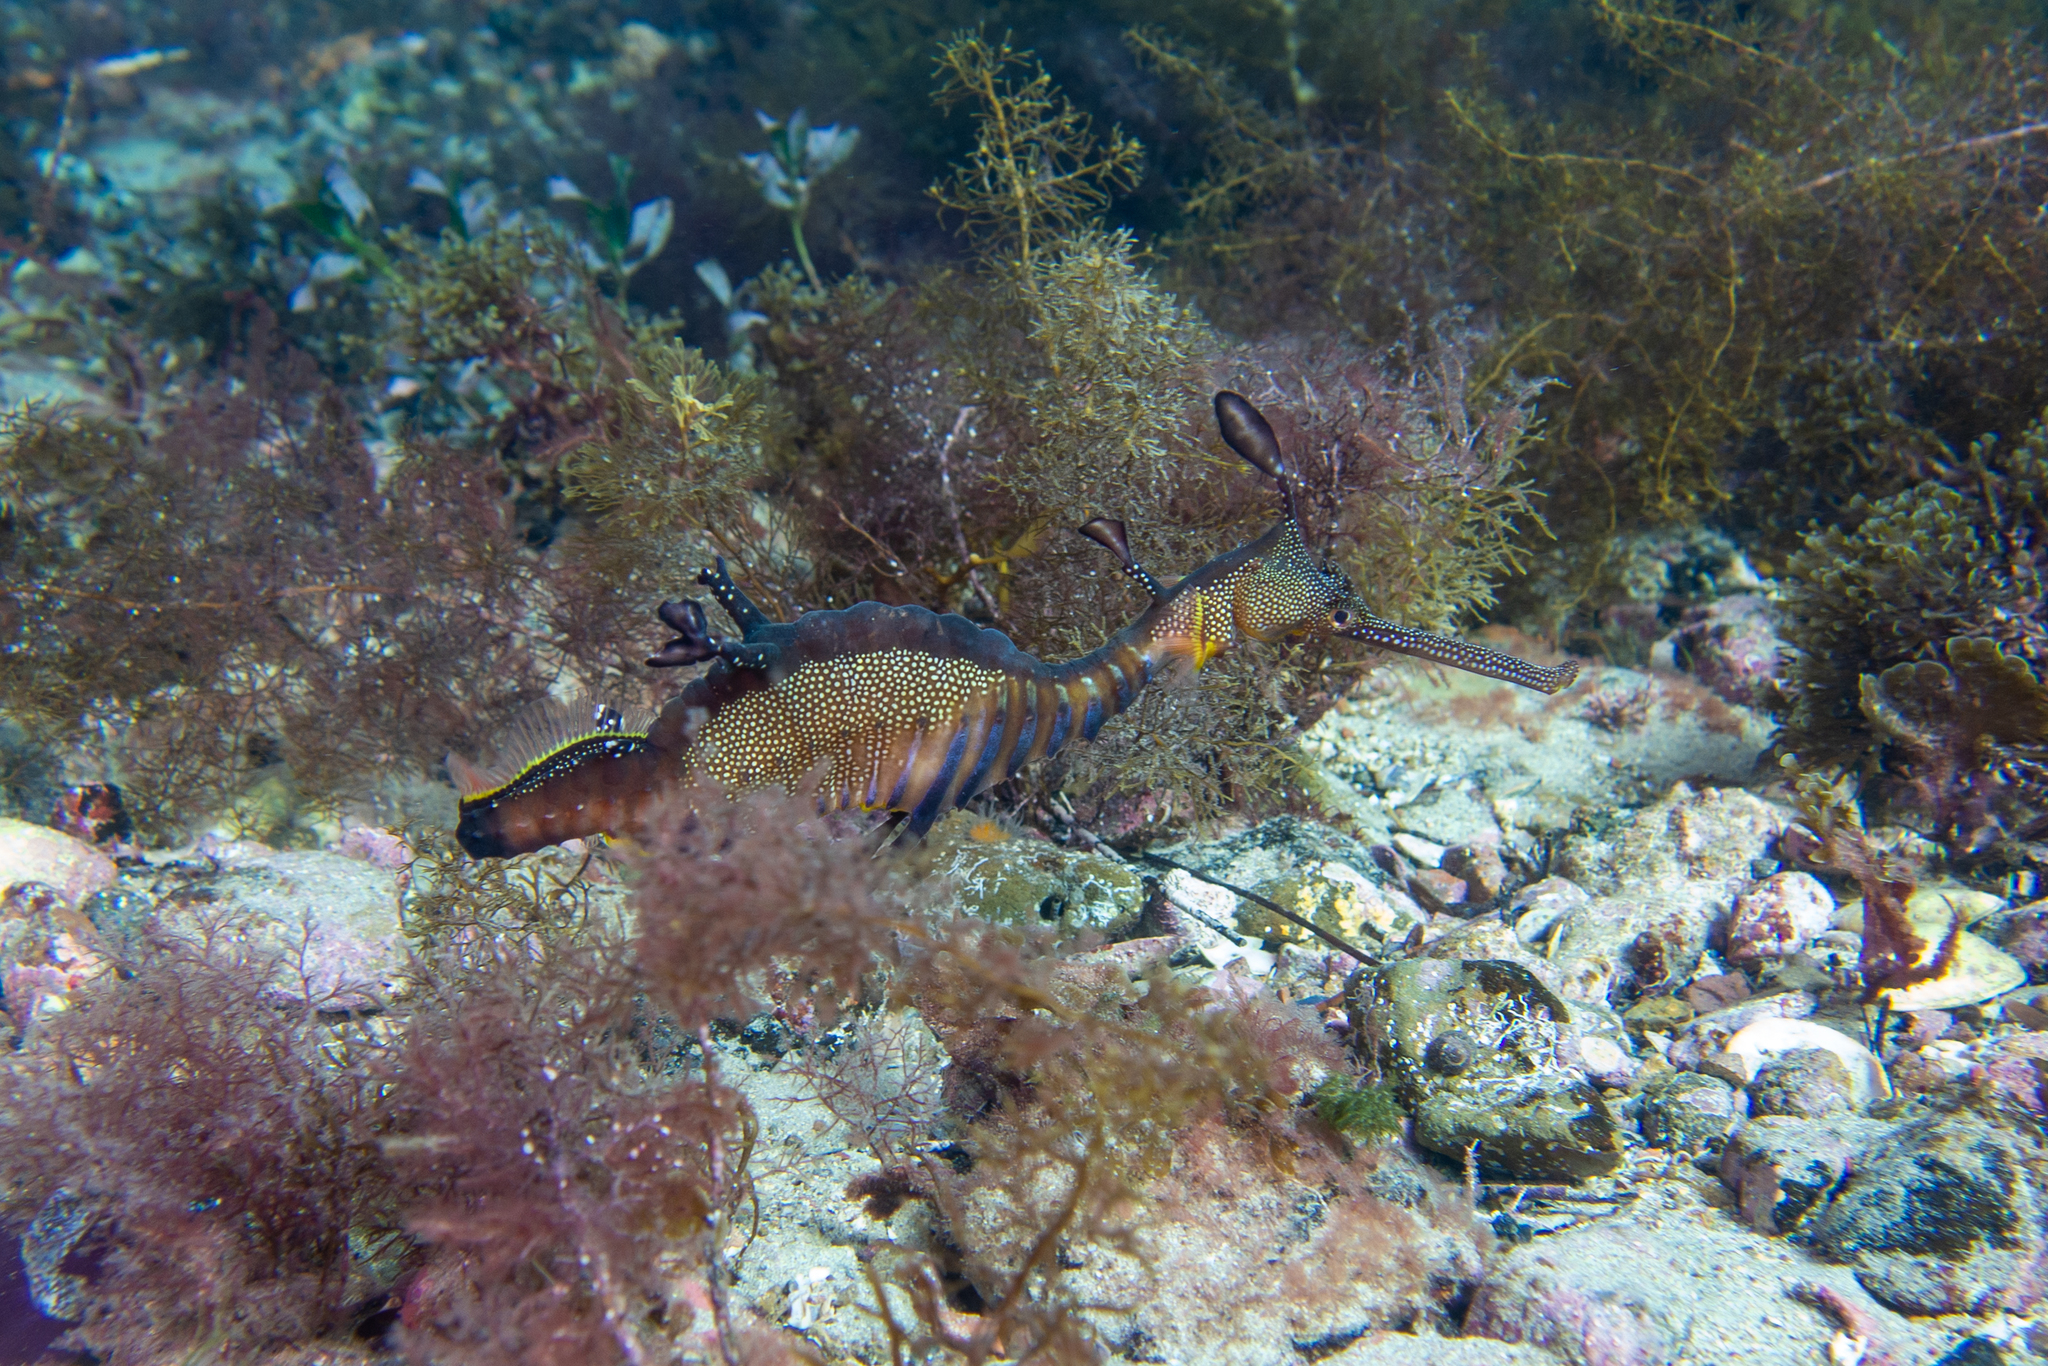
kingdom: Animalia
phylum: Chordata
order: Syngnathiformes
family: Syngnathidae
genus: Phyllopteryx
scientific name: Phyllopteryx taeniolatus
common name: Common seadragon
